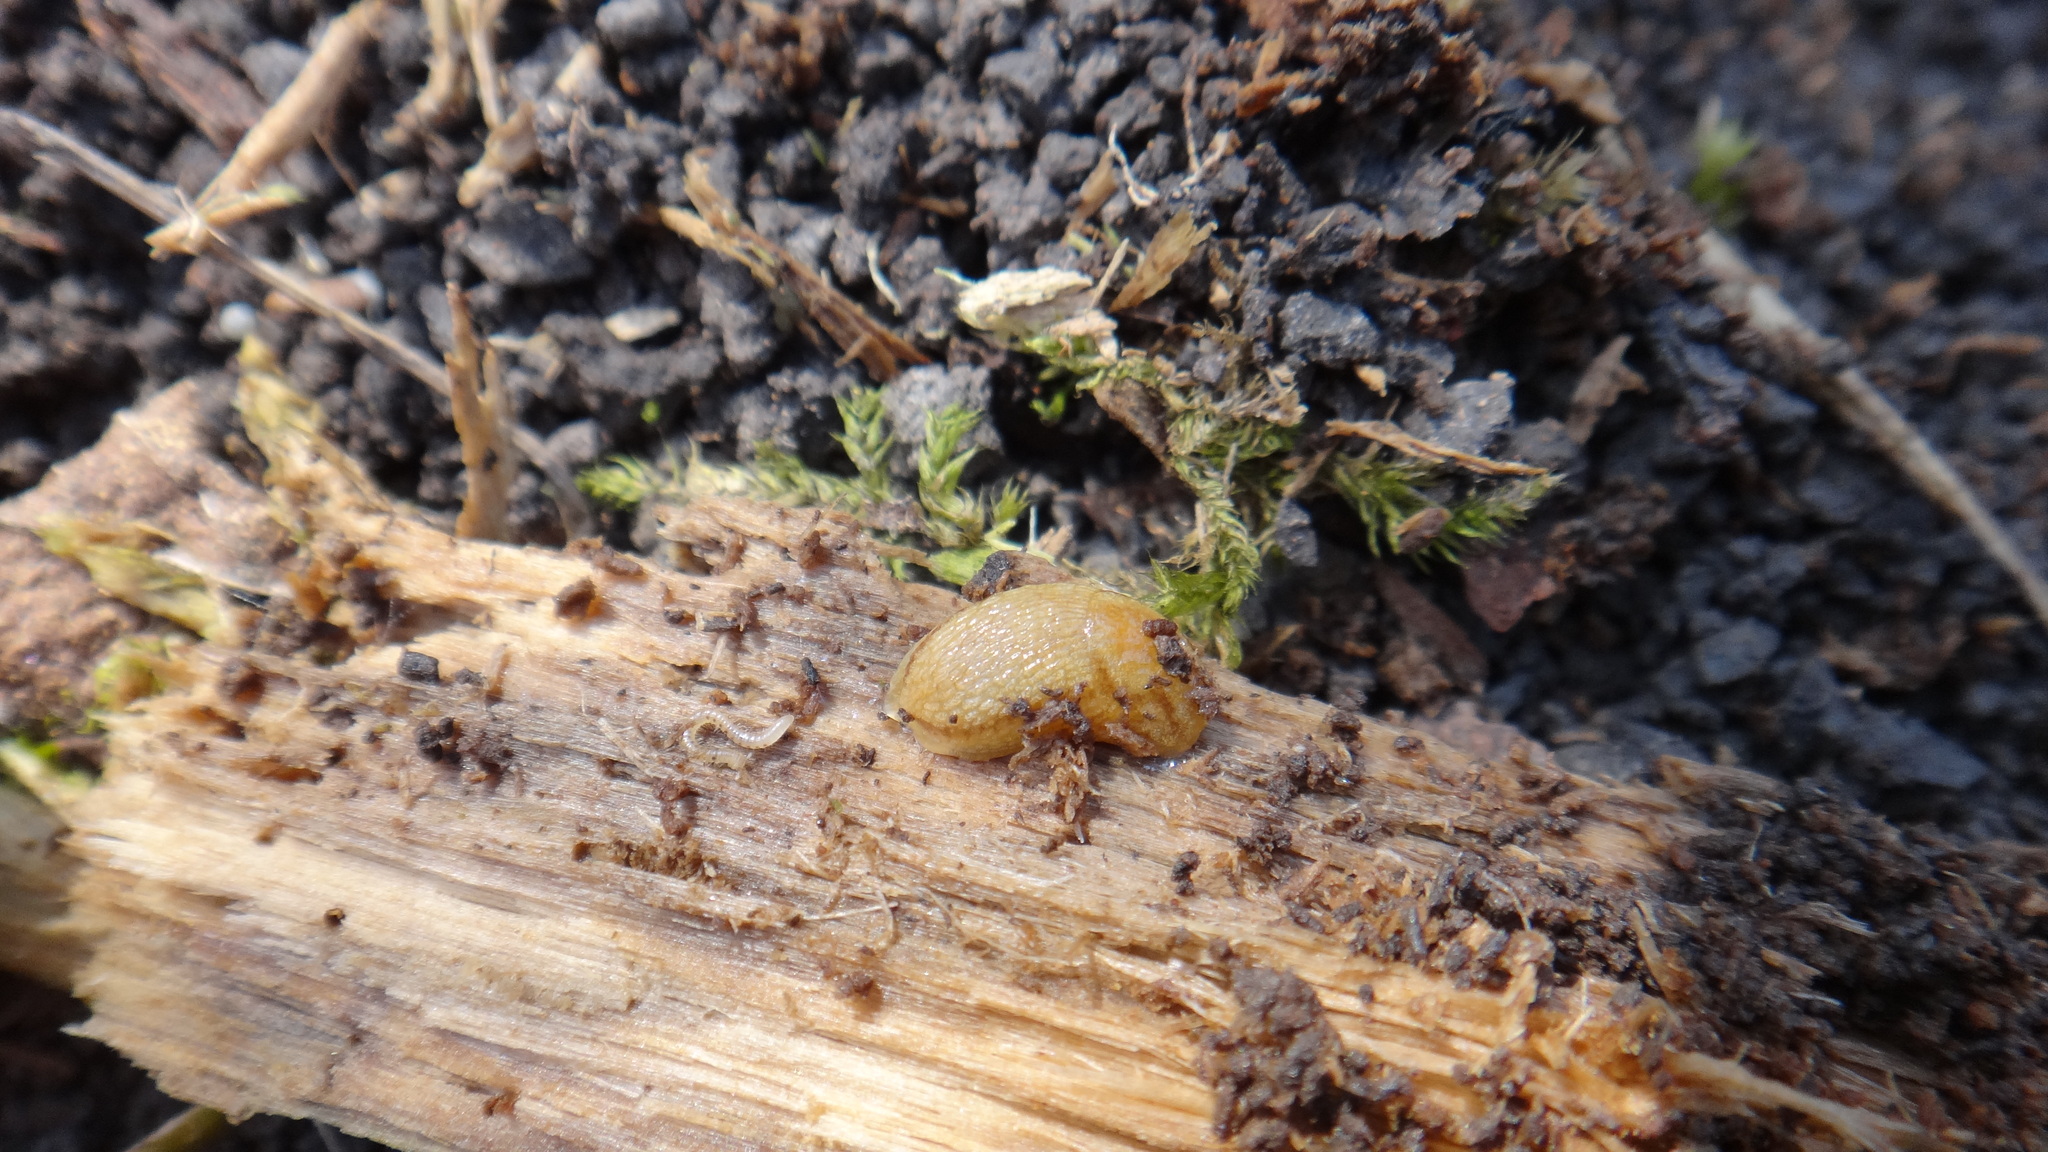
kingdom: Animalia
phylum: Mollusca
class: Gastropoda
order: Stylommatophora
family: Arionidae
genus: Arion
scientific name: Arion fuscus
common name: Northern dusky slug
